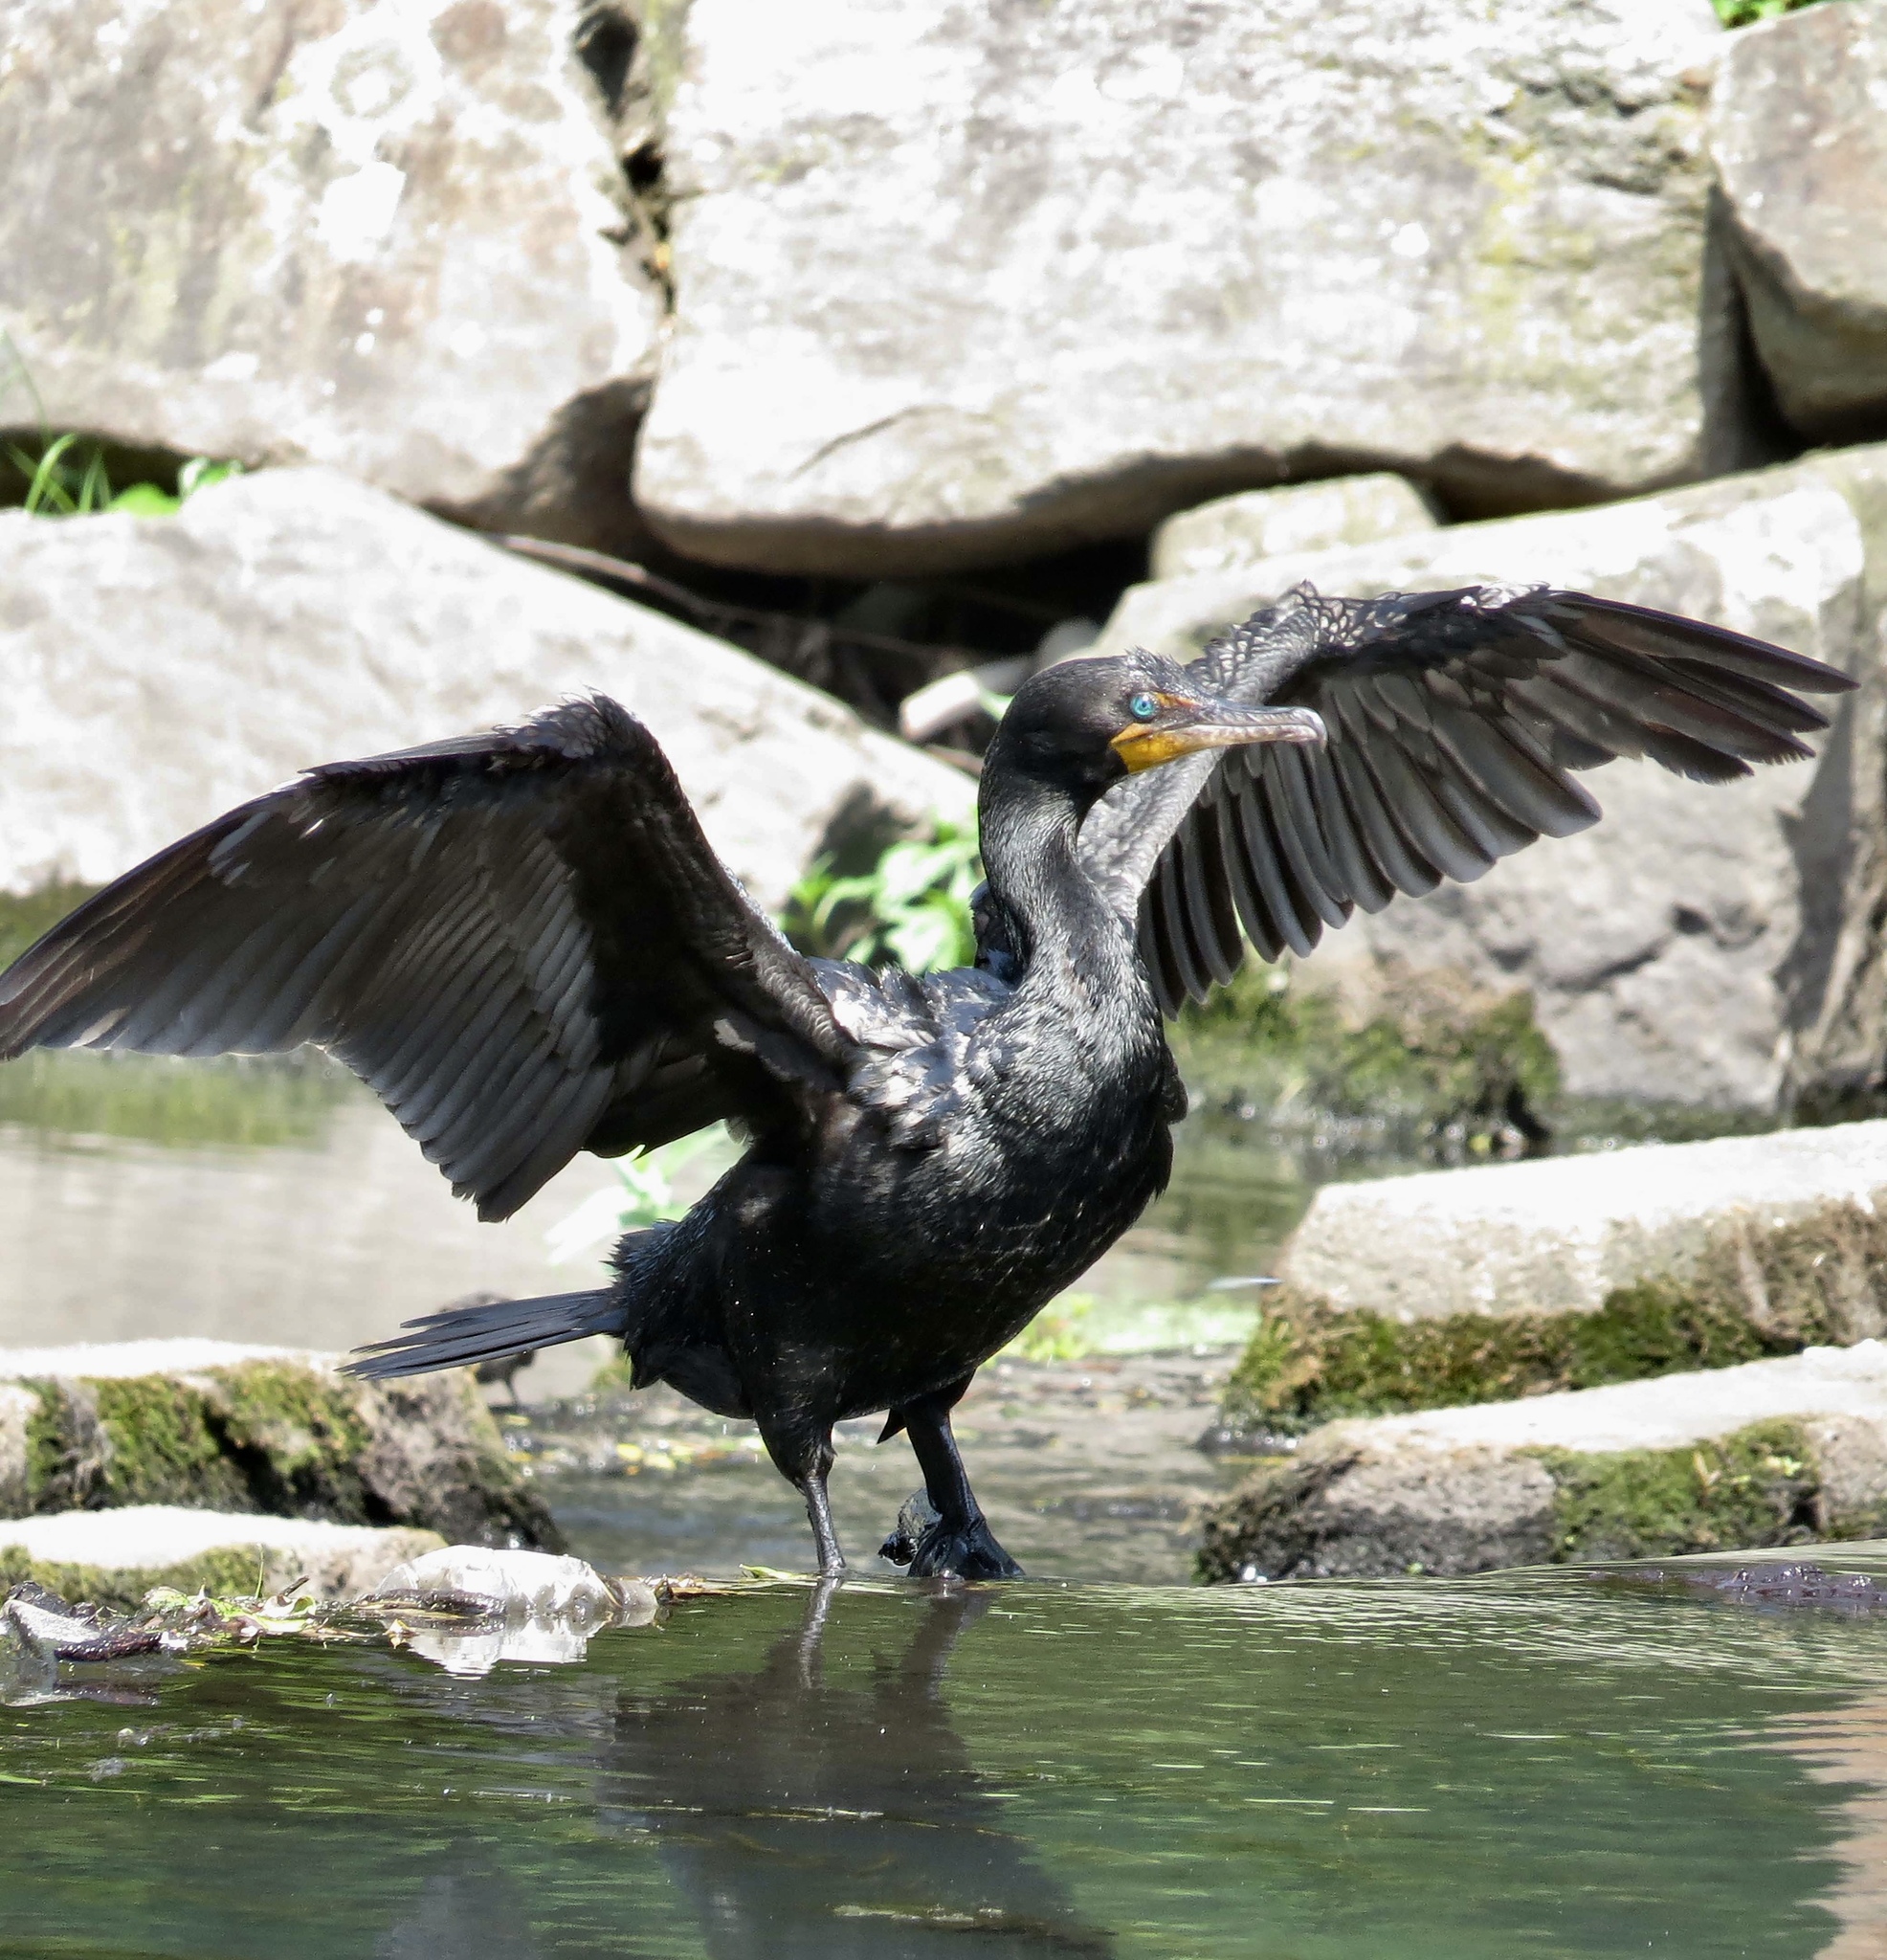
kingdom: Animalia
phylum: Chordata
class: Aves
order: Suliformes
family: Phalacrocoracidae
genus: Phalacrocorax
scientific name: Phalacrocorax auritus
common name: Double-crested cormorant
